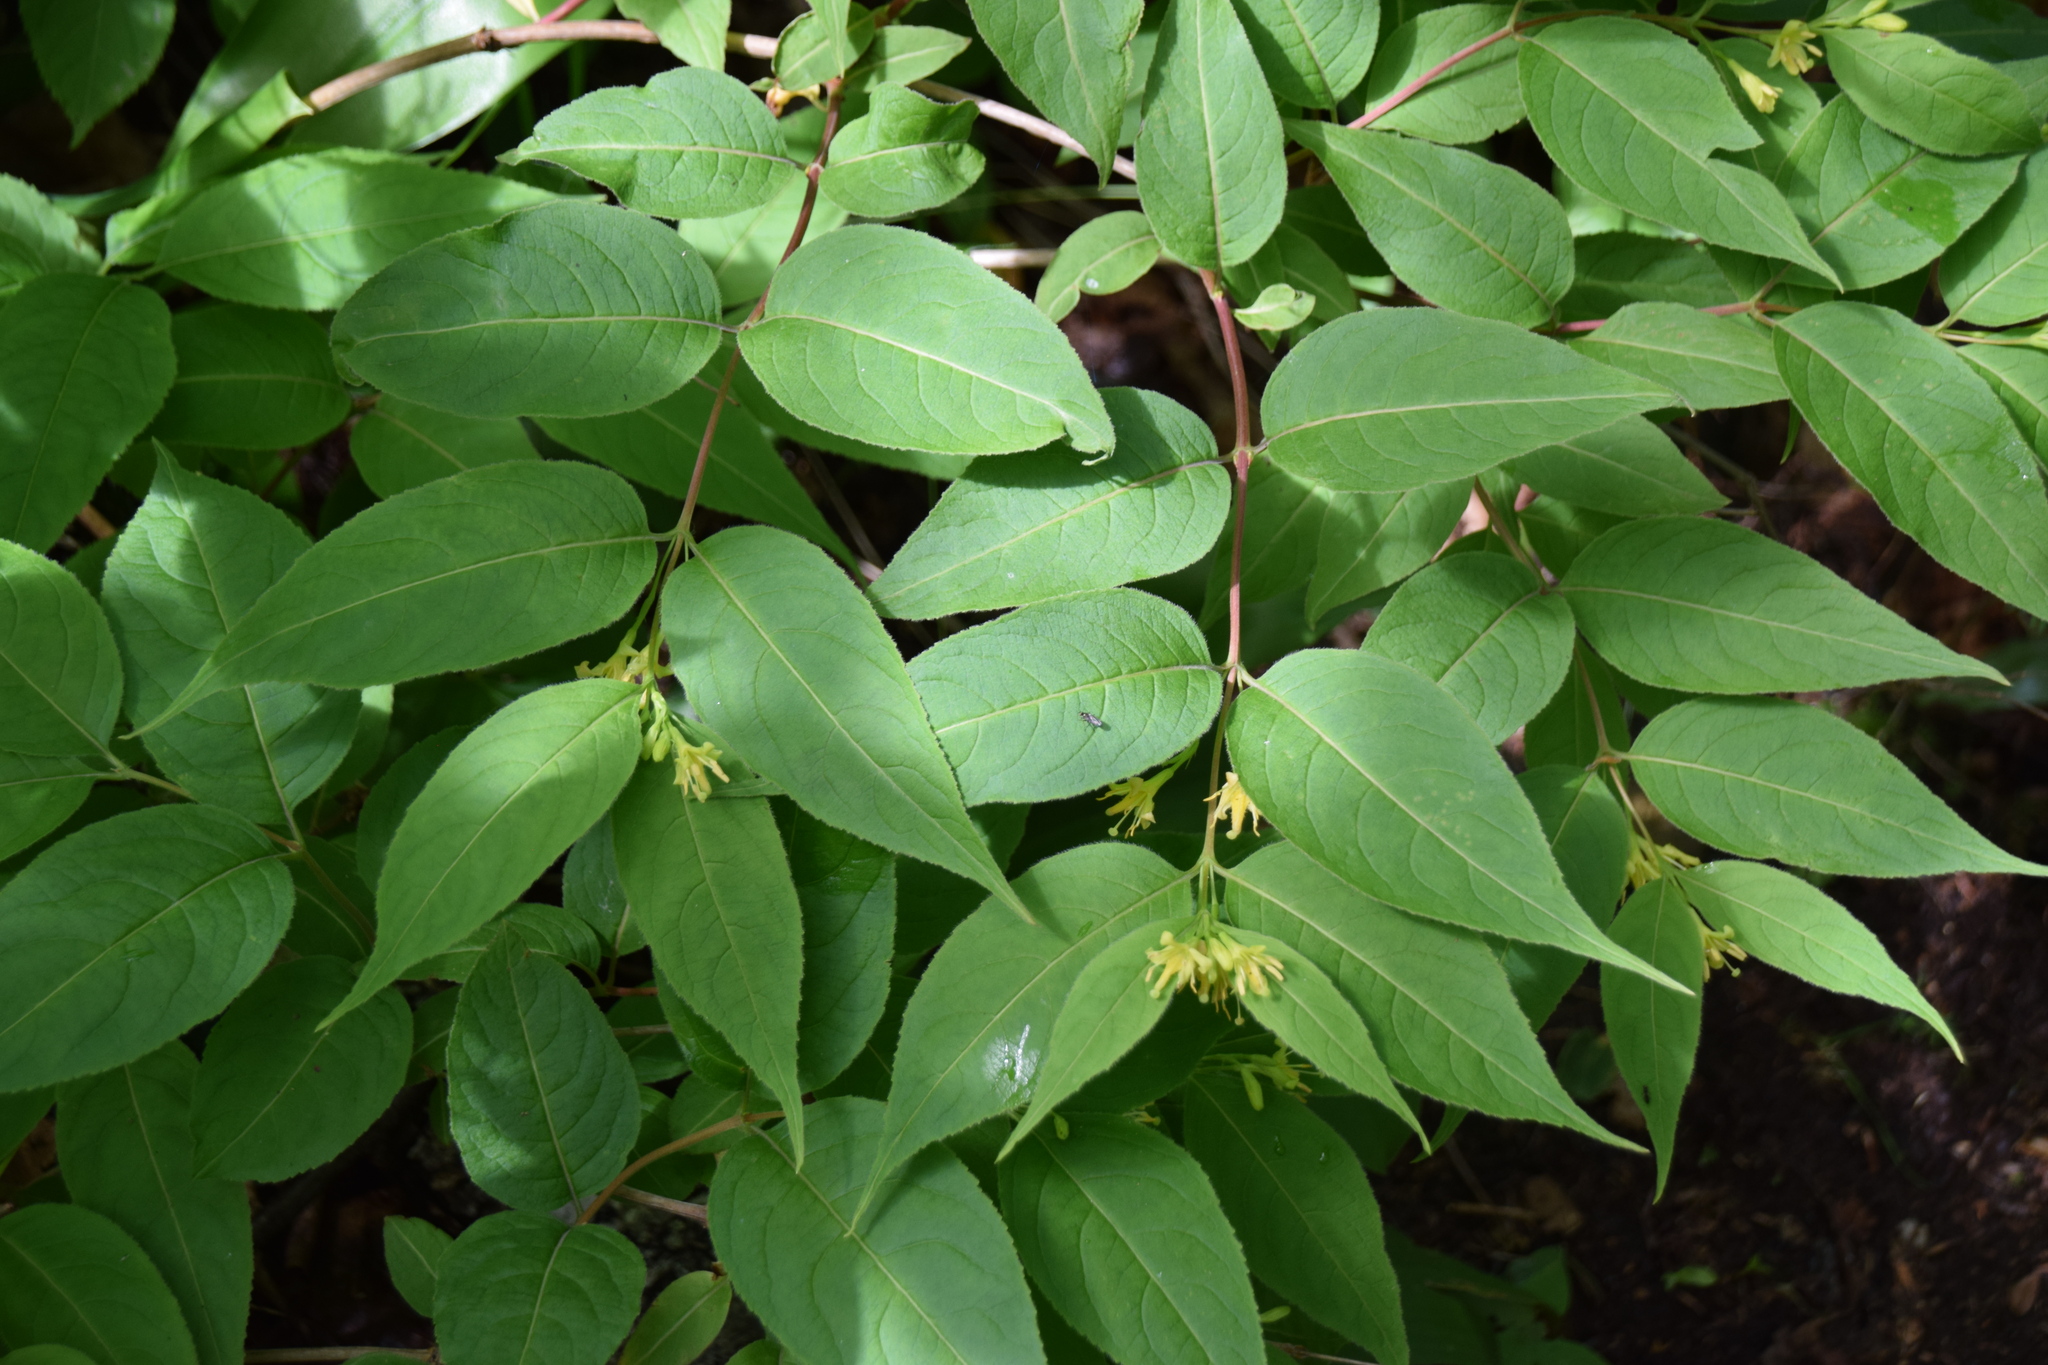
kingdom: Plantae
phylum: Tracheophyta
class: Magnoliopsida
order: Dipsacales
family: Caprifoliaceae
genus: Diervilla
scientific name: Diervilla lonicera
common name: Bush-honeysuckle
